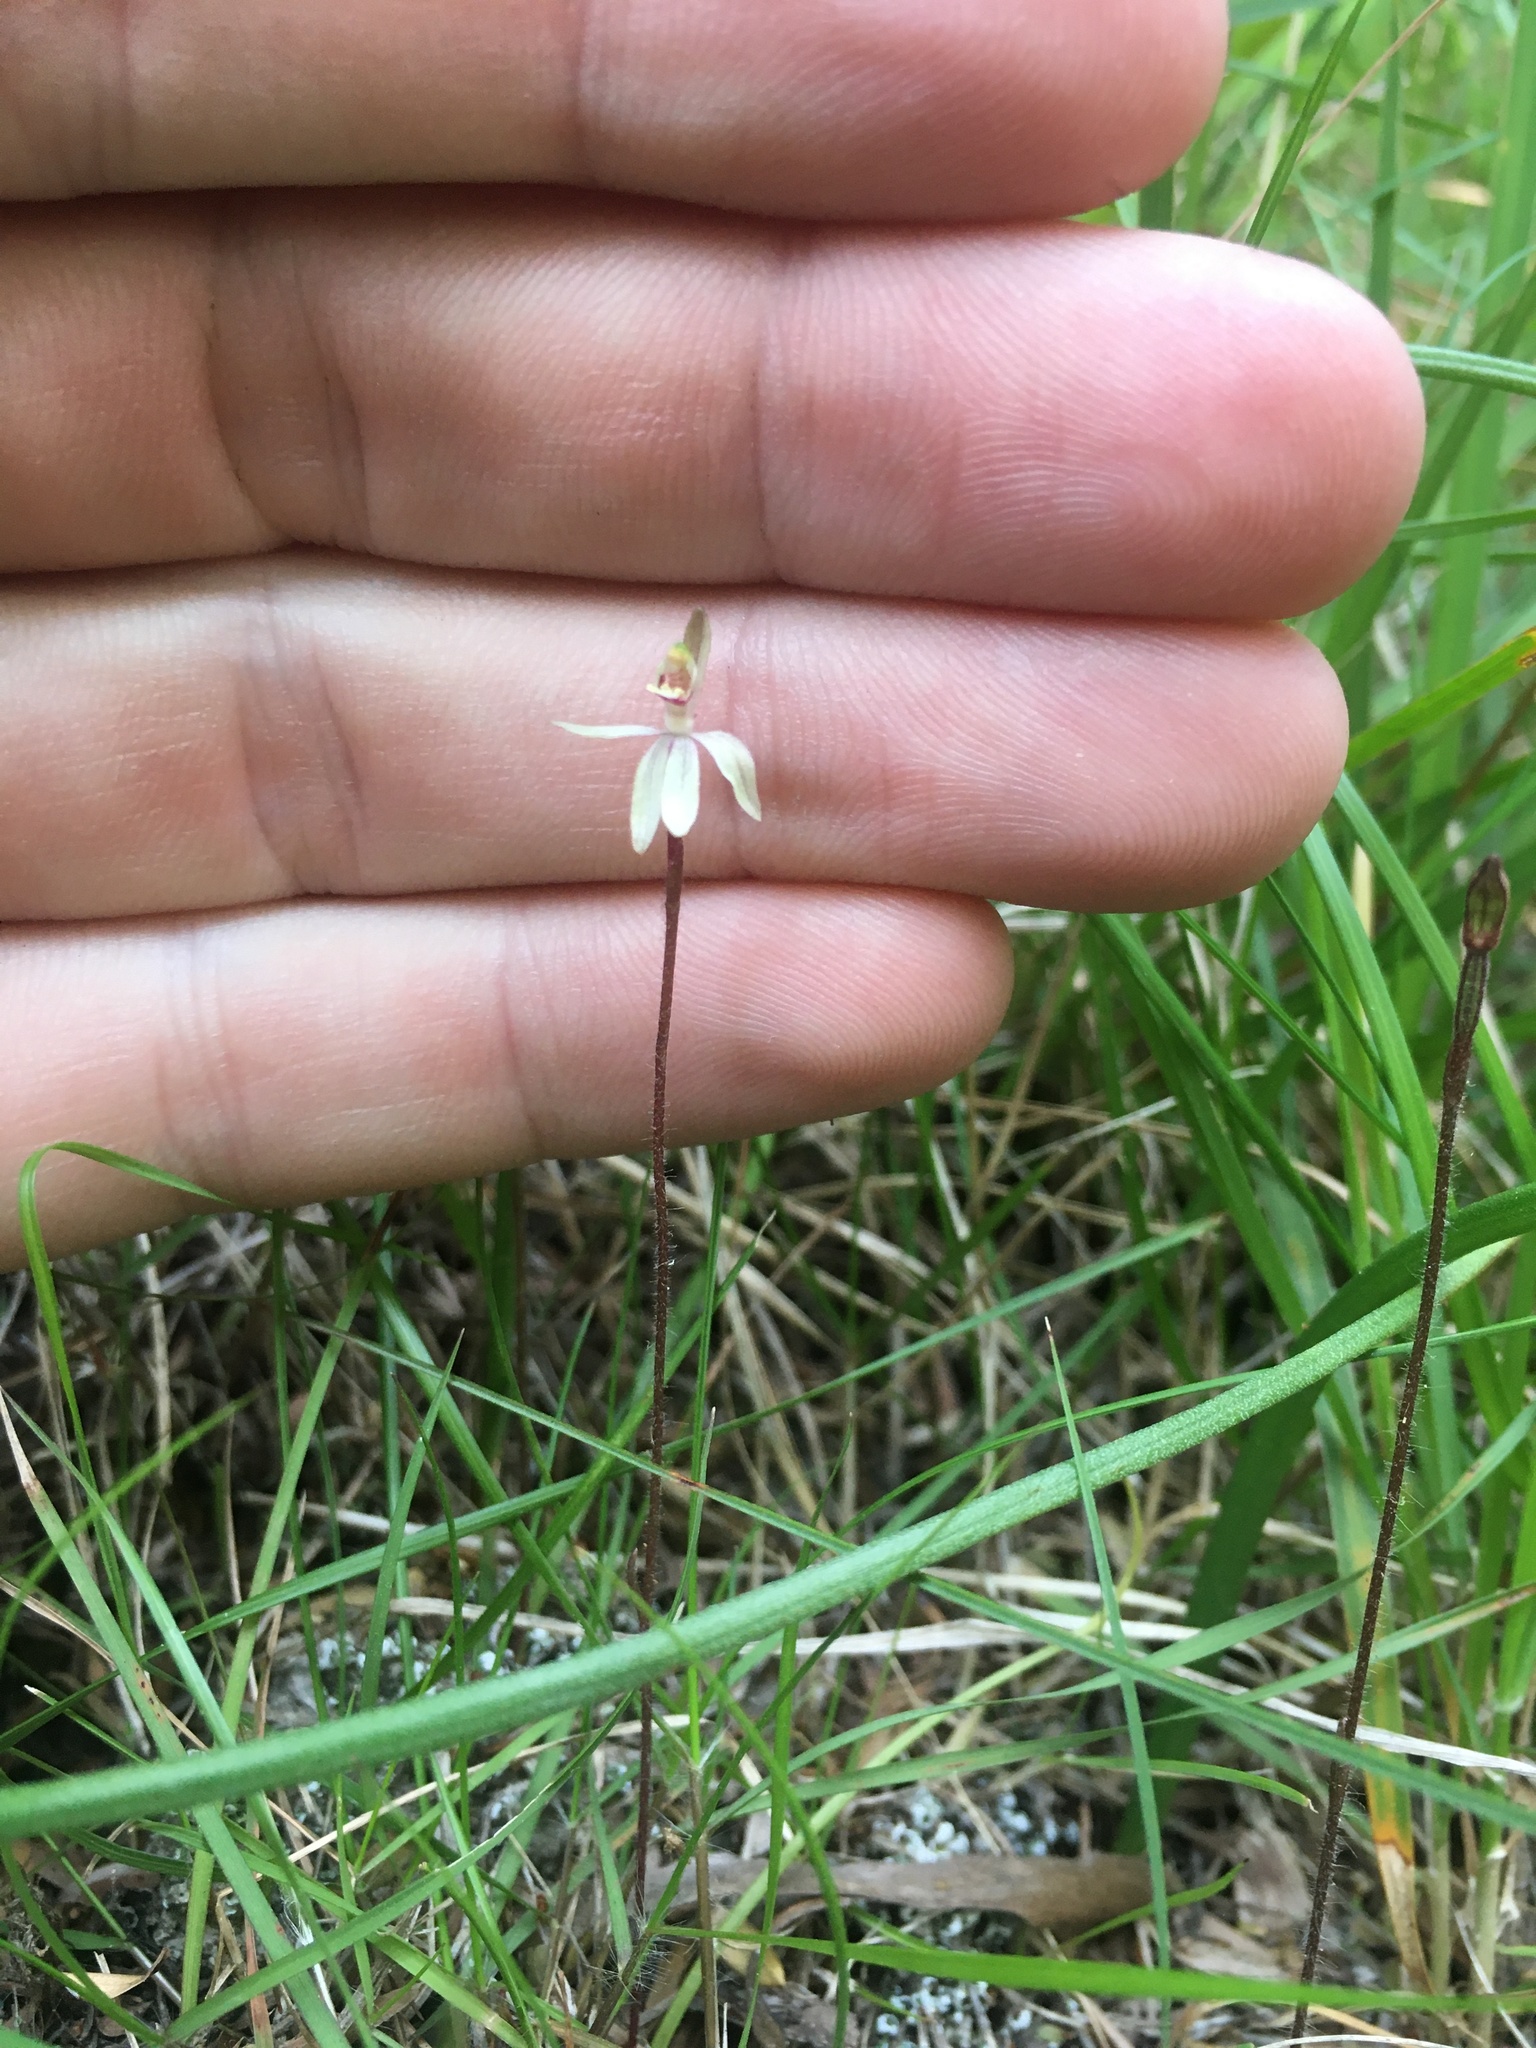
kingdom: Plantae
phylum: Tracheophyta
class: Liliopsida
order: Asparagales
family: Orchidaceae
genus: Caladenia
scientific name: Caladenia variegata
